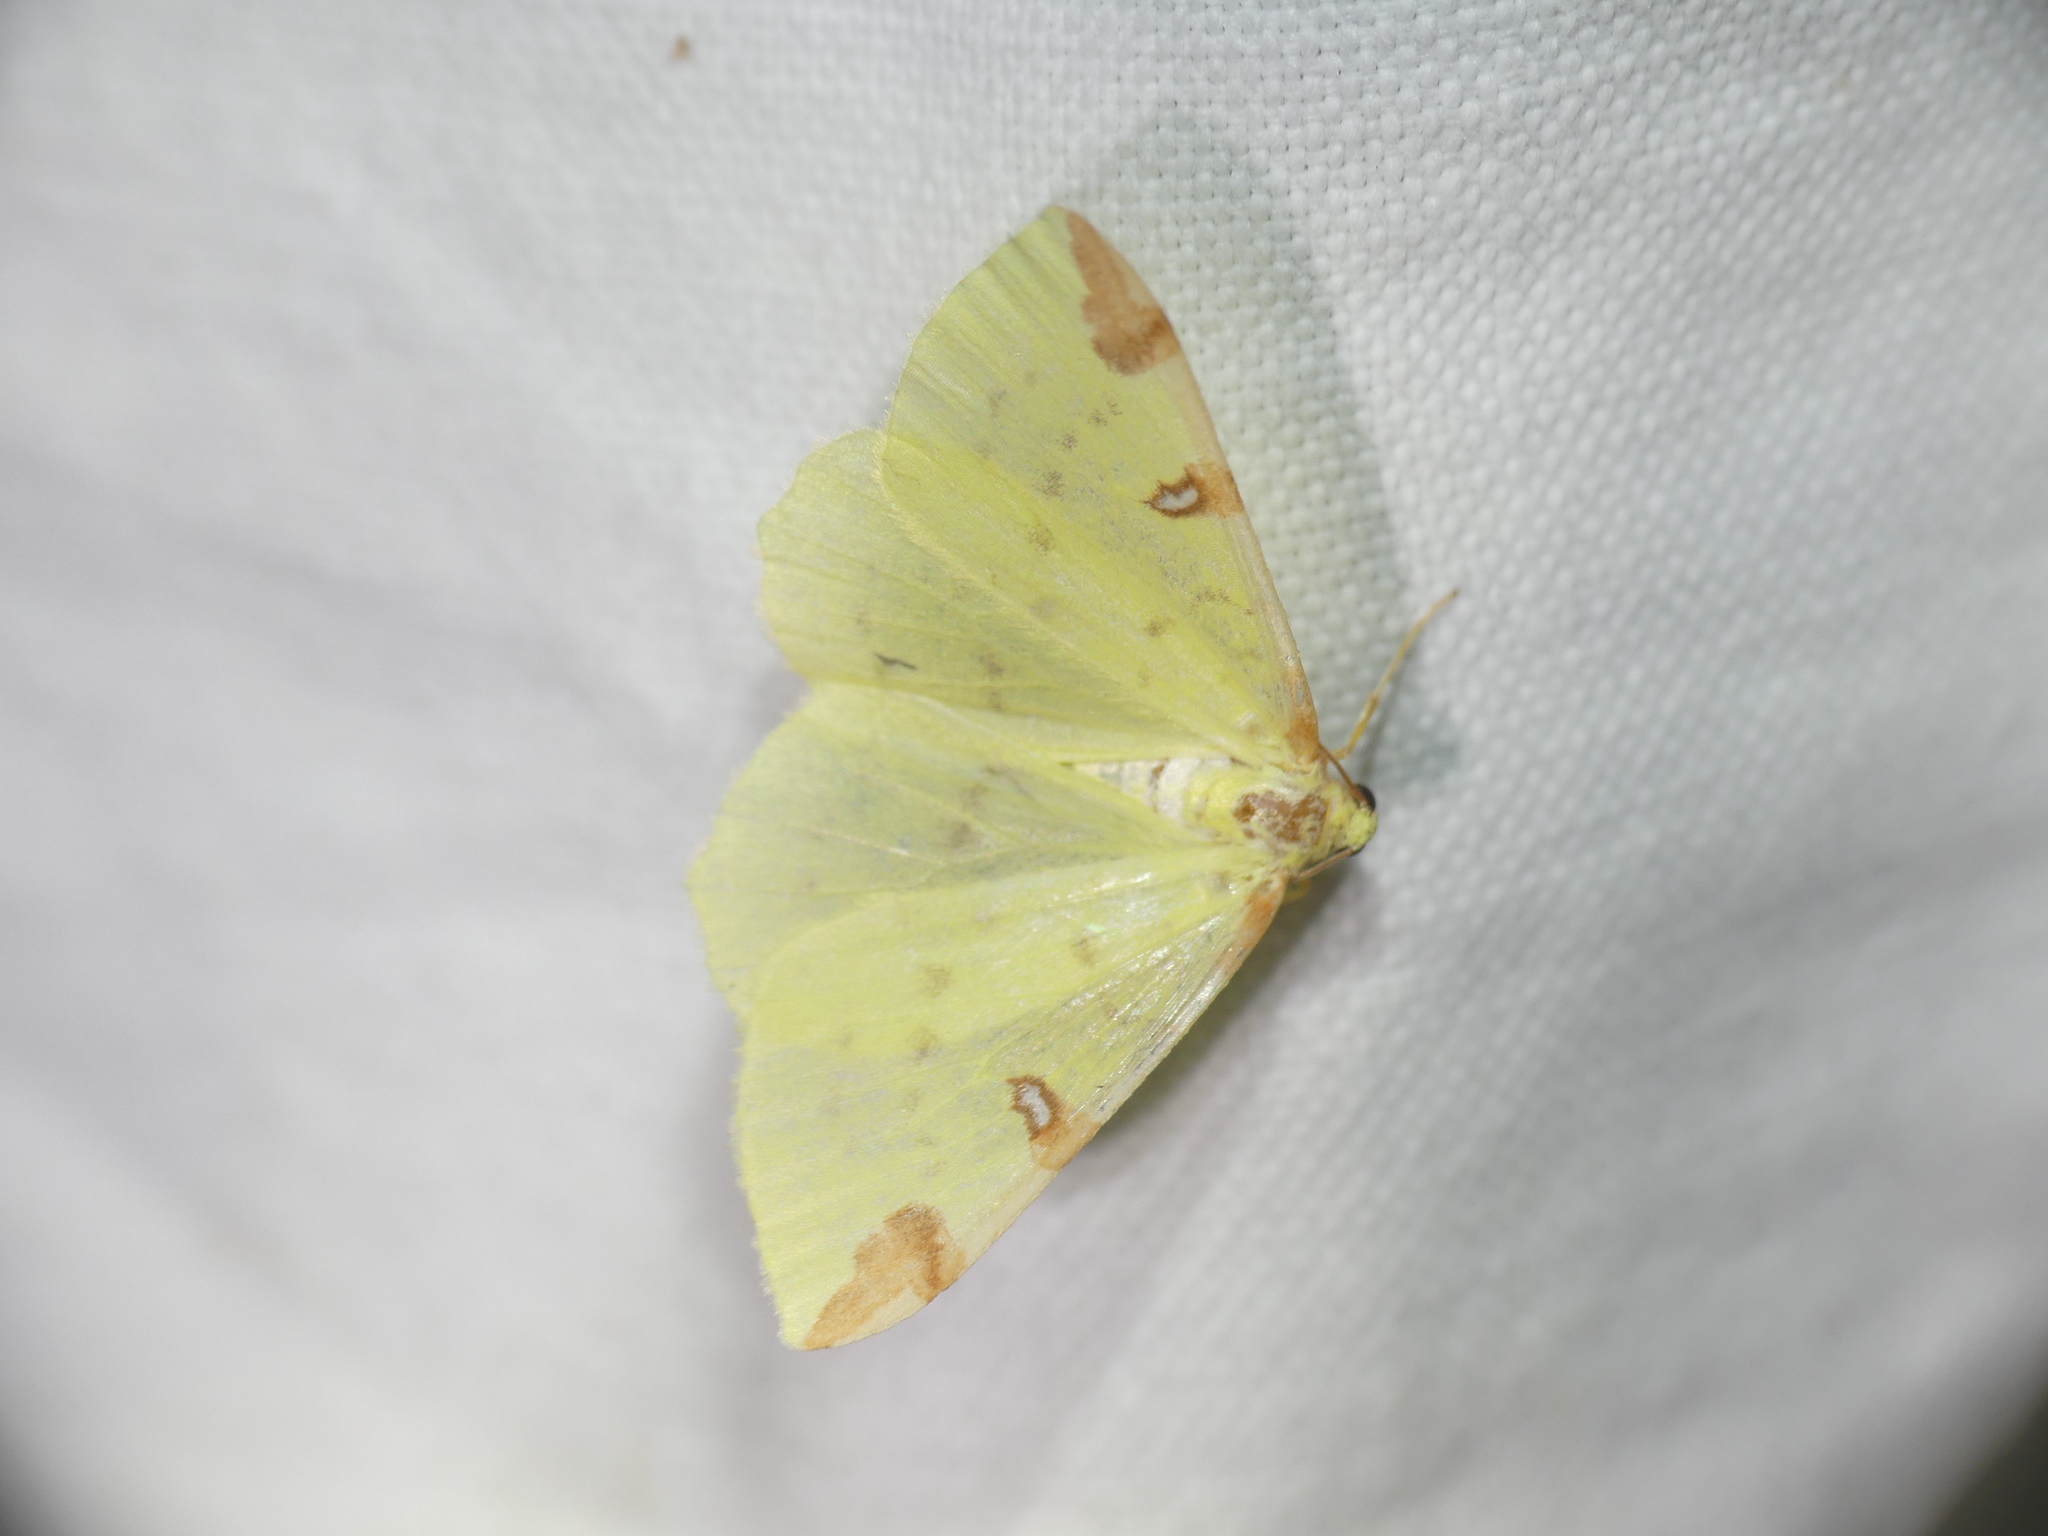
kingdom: Animalia
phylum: Arthropoda
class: Insecta
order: Lepidoptera
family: Geometridae
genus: Opisthograptis
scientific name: Opisthograptis luteolata
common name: Brimstone moth
